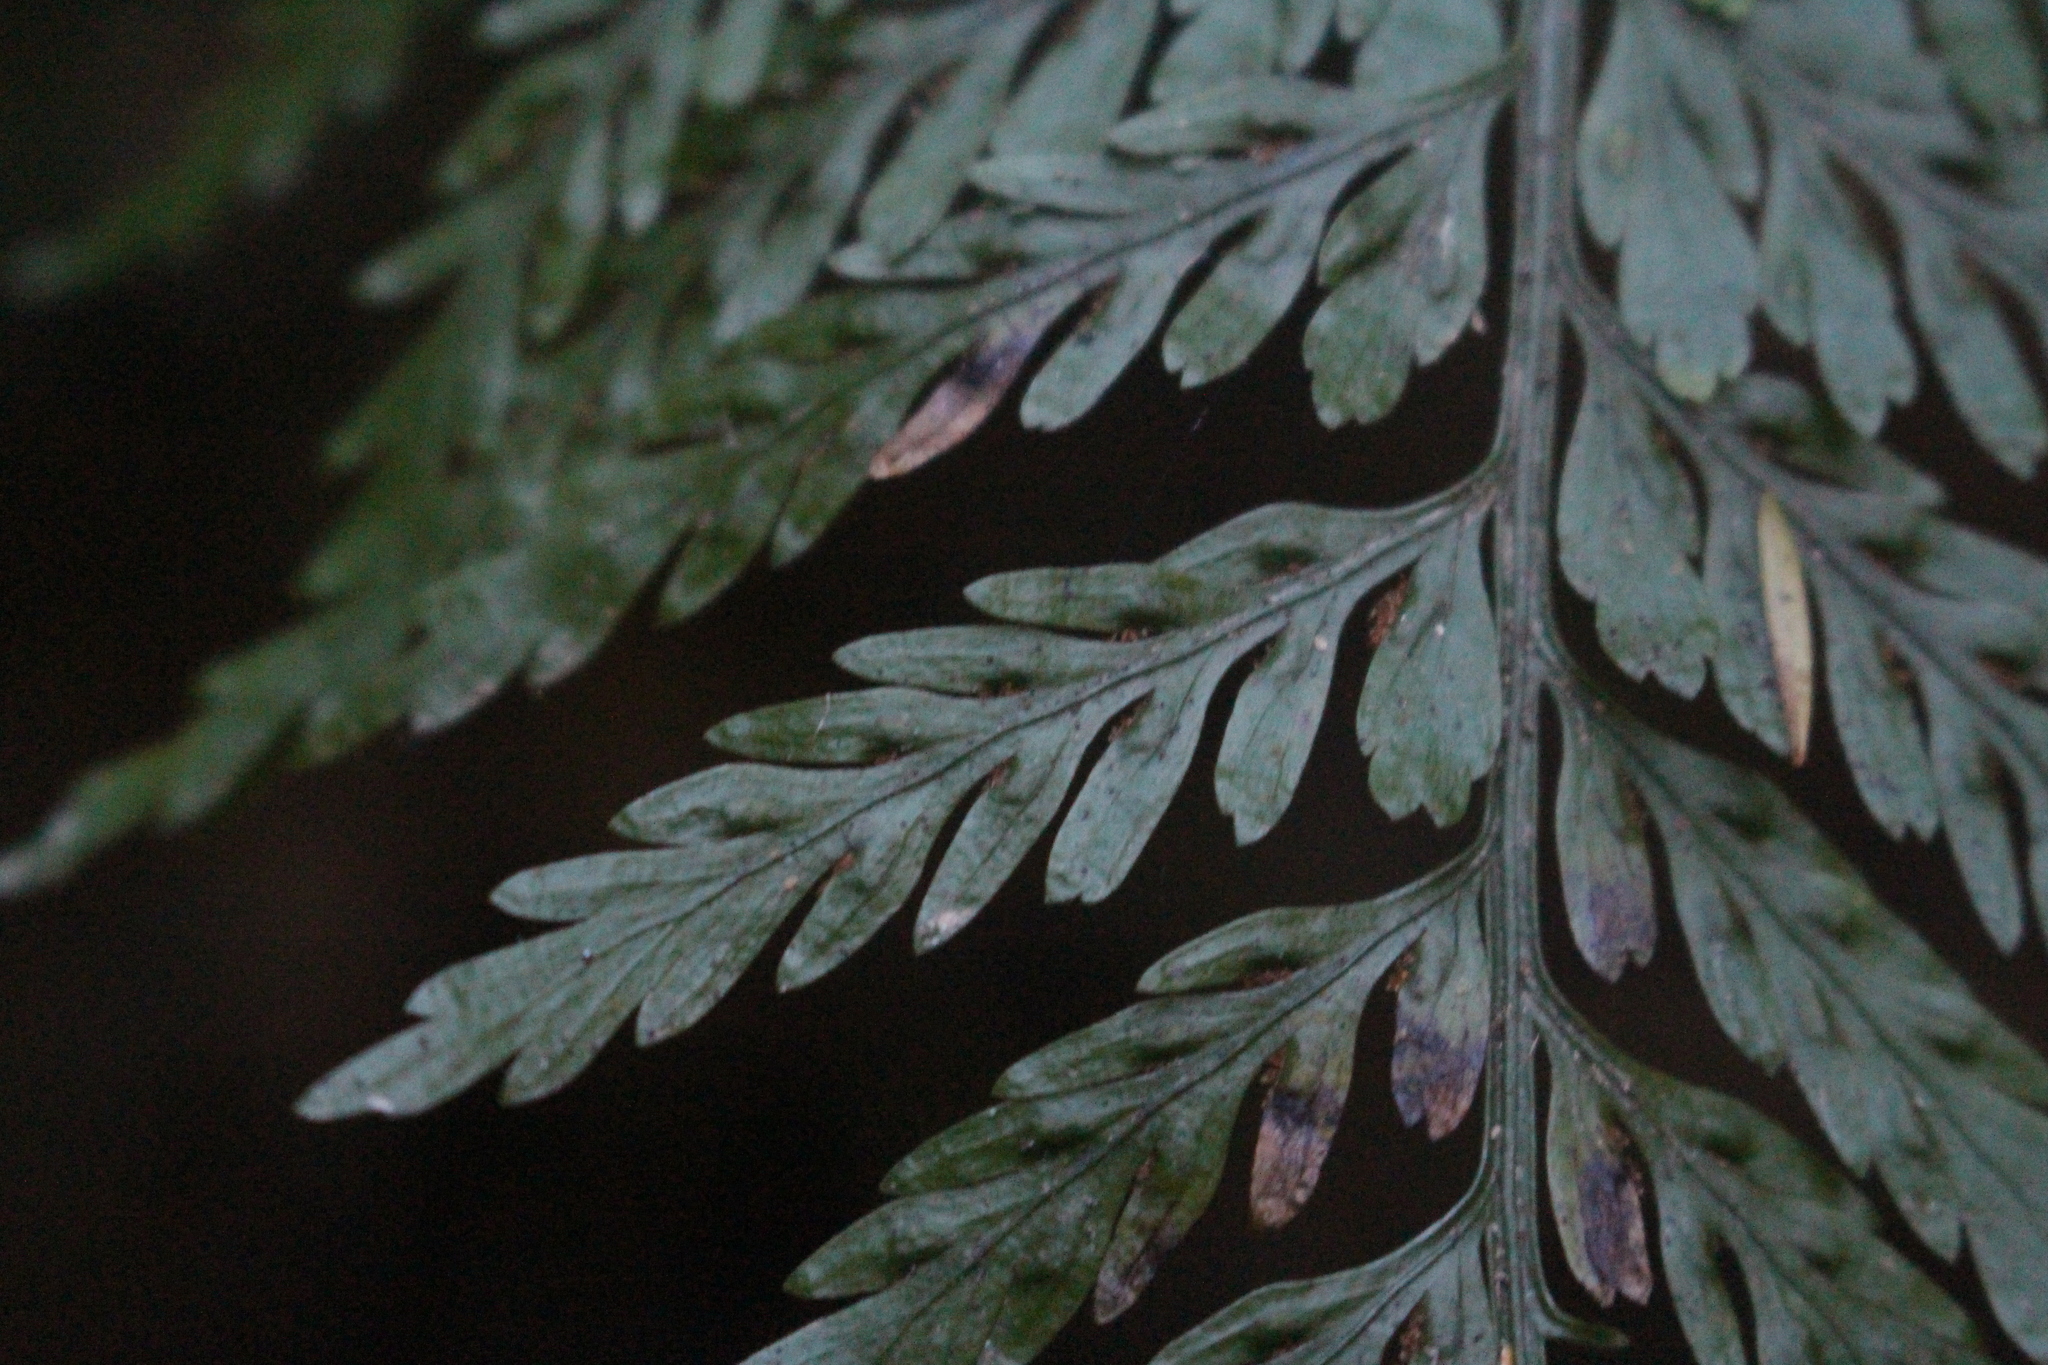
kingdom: Plantae
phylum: Tracheophyta
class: Polypodiopsida
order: Polypodiales
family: Aspleniaceae
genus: Asplenium
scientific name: Asplenium
